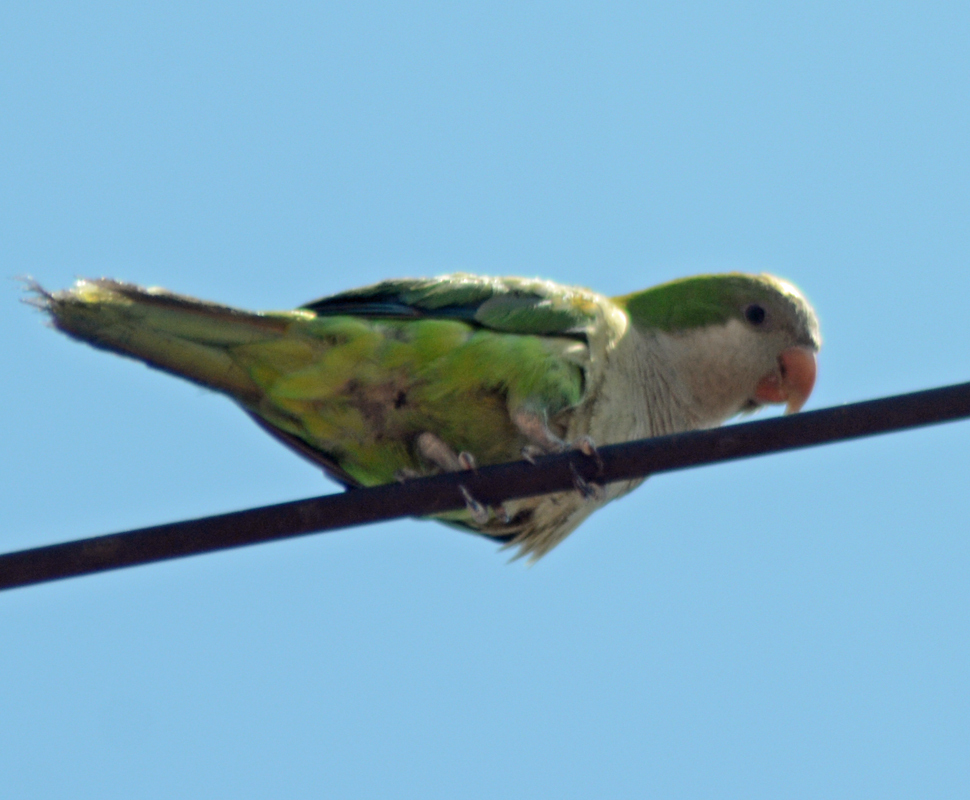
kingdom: Animalia
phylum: Chordata
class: Aves
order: Psittaciformes
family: Psittacidae
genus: Myiopsitta
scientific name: Myiopsitta monachus
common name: Monk parakeet
